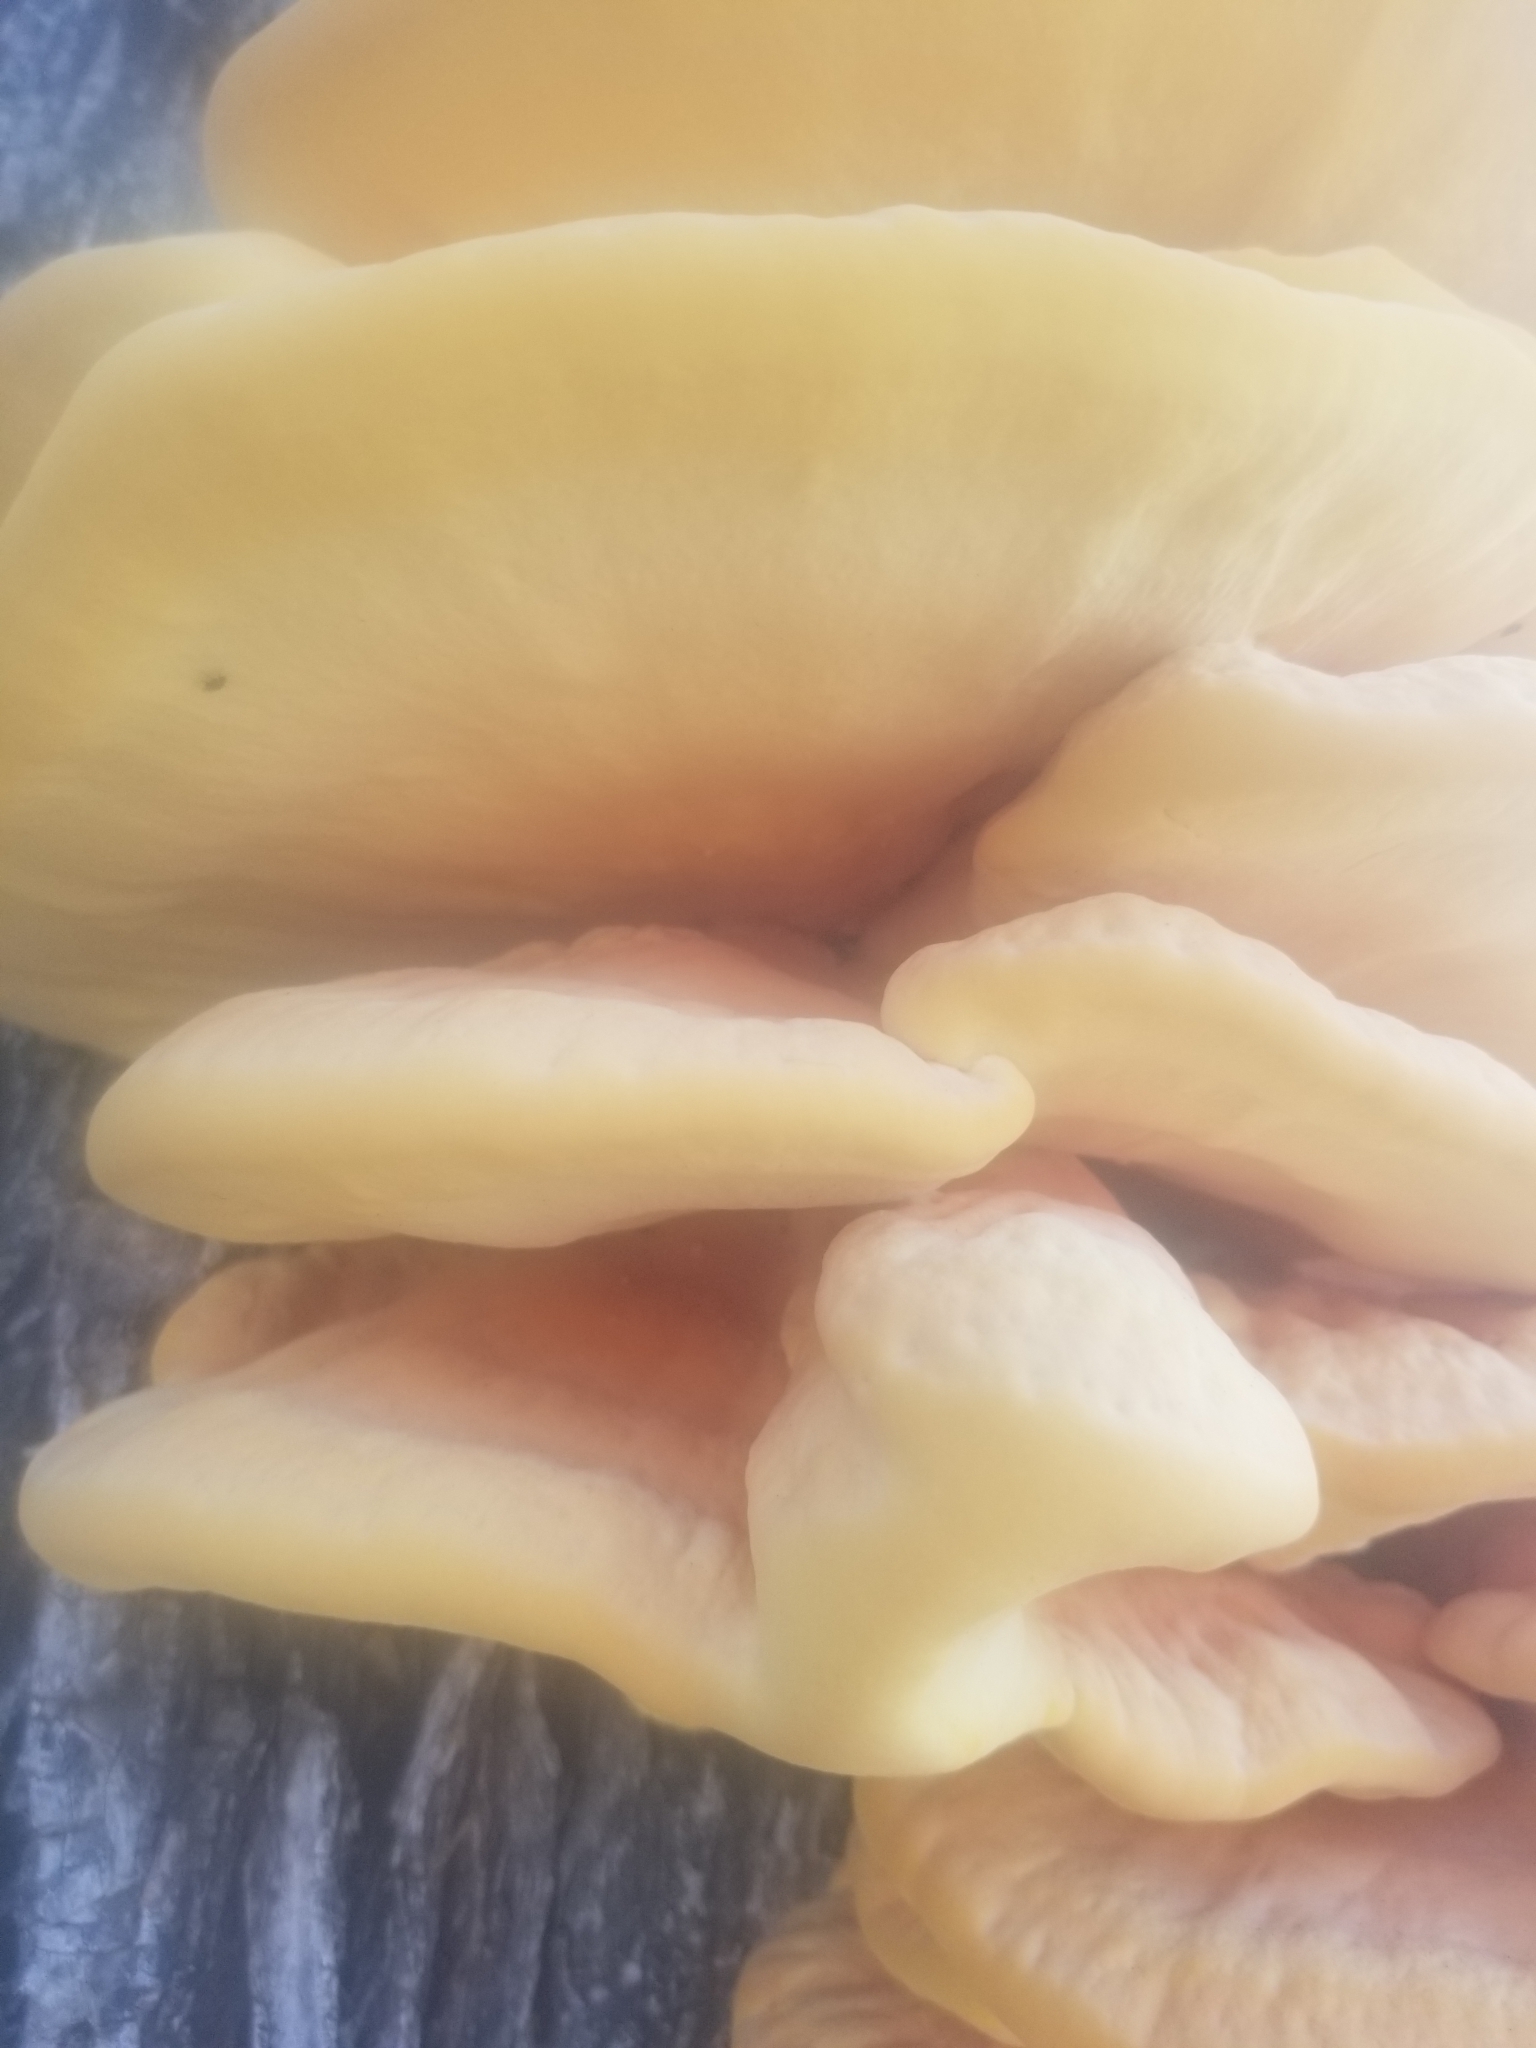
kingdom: Fungi
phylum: Basidiomycota
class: Agaricomycetes
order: Polyporales
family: Laetiporaceae
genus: Laetiporus
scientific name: Laetiporus gilbertsonii
